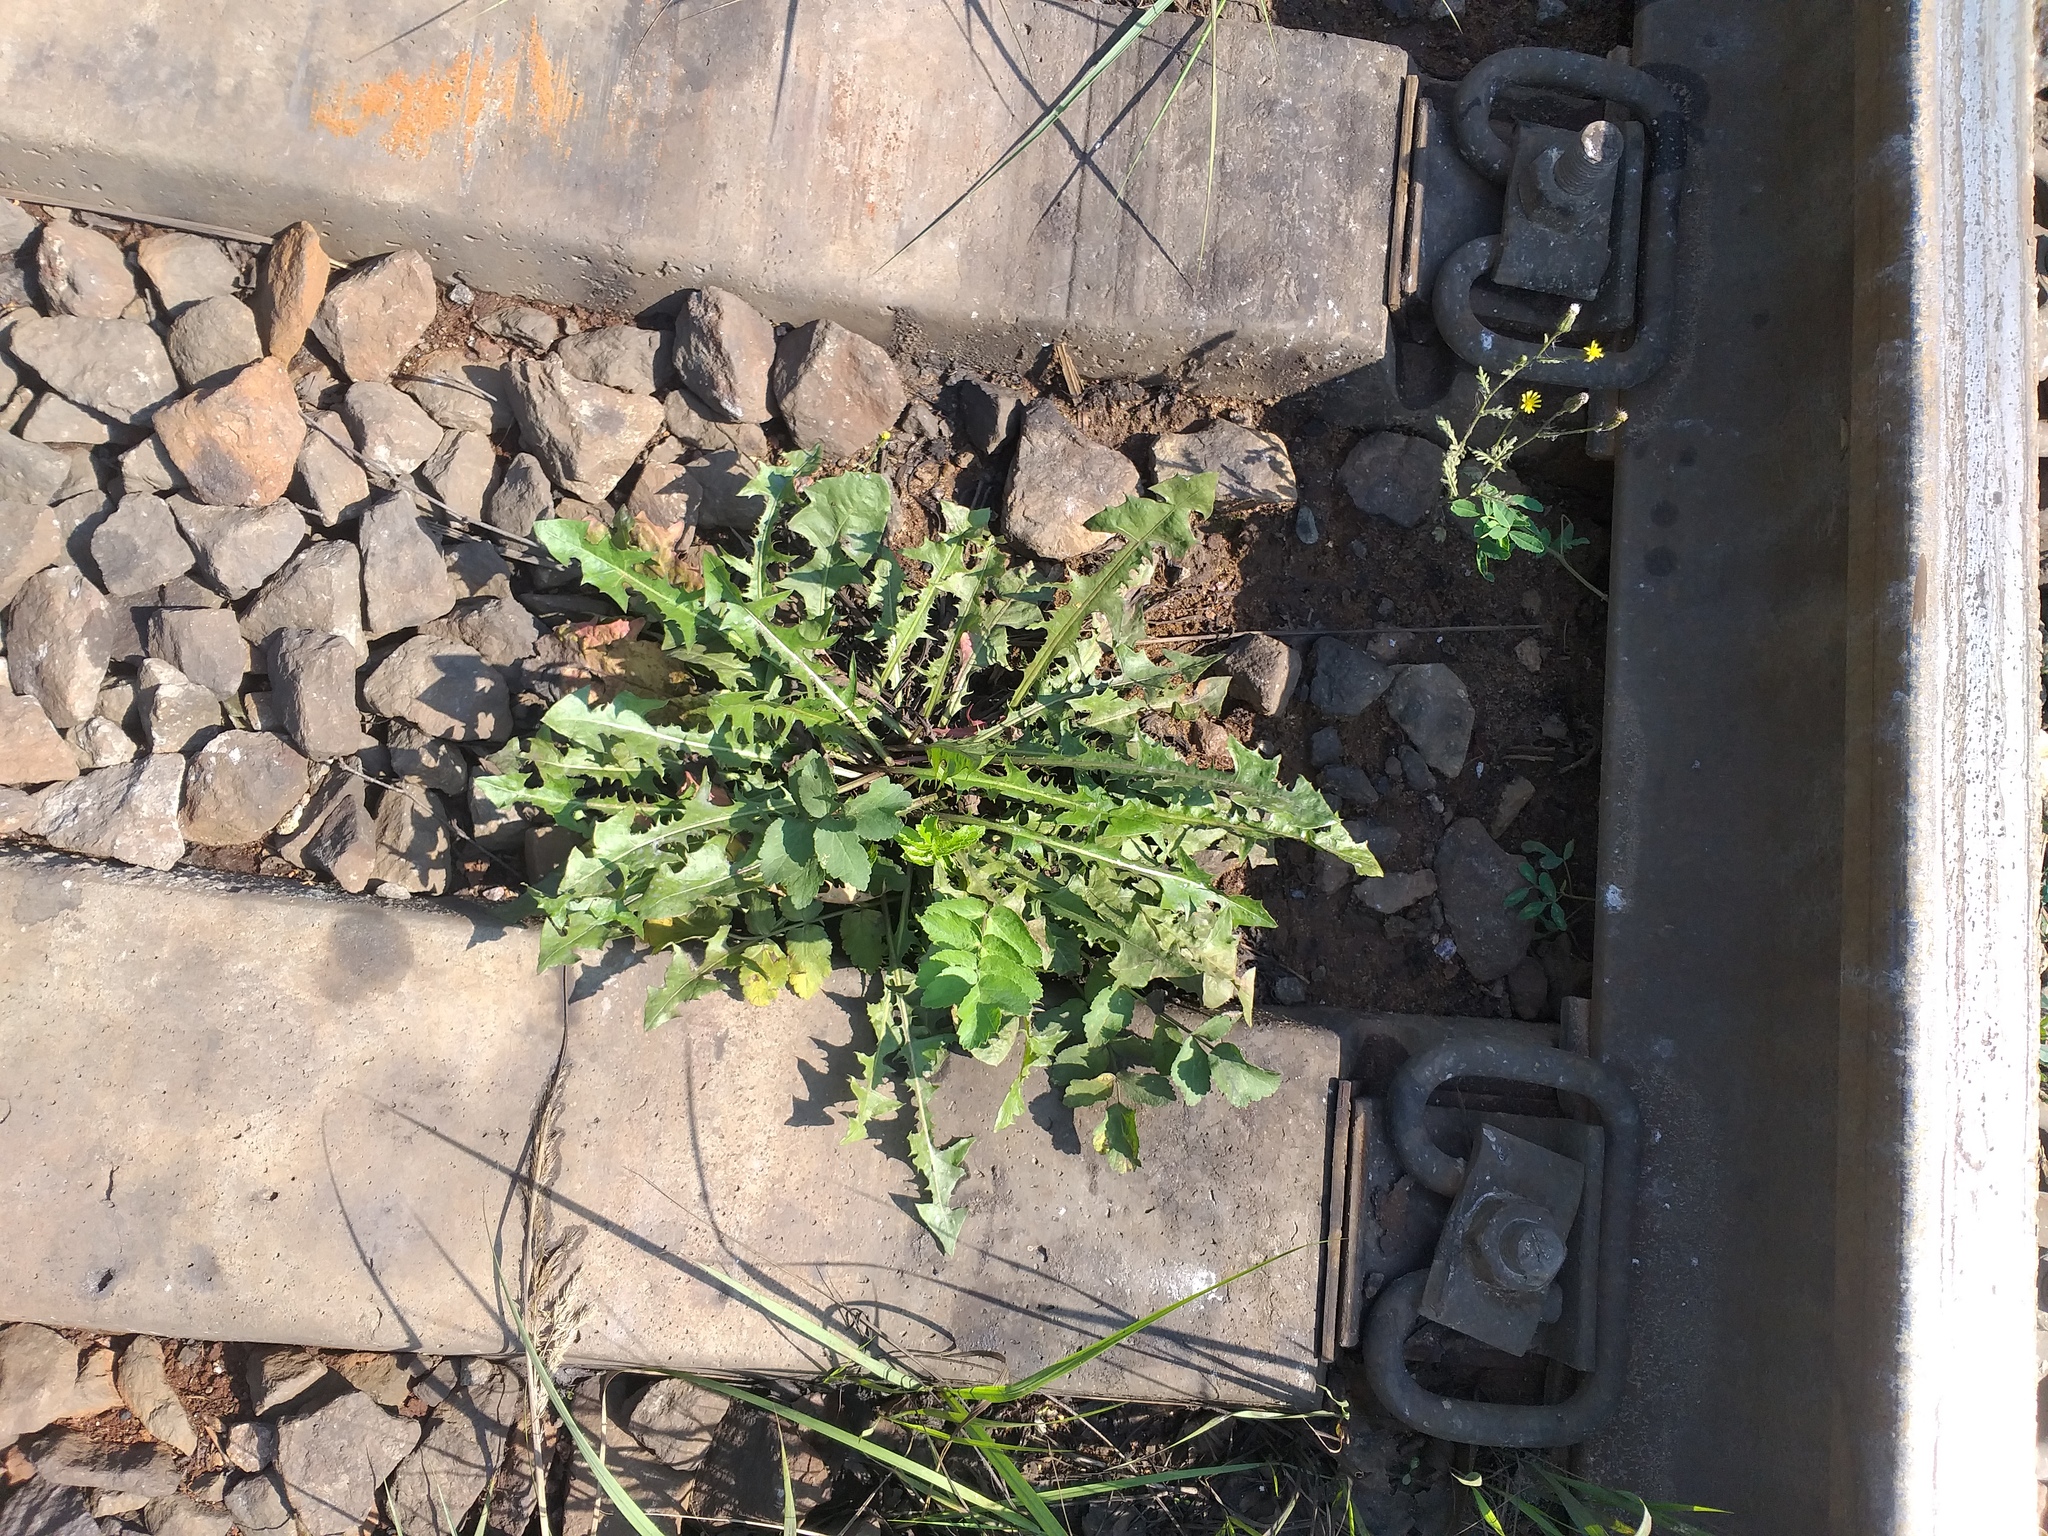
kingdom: Plantae
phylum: Tracheophyta
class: Magnoliopsida
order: Asterales
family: Asteraceae
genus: Taraxacum
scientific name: Taraxacum officinale
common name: Common dandelion
